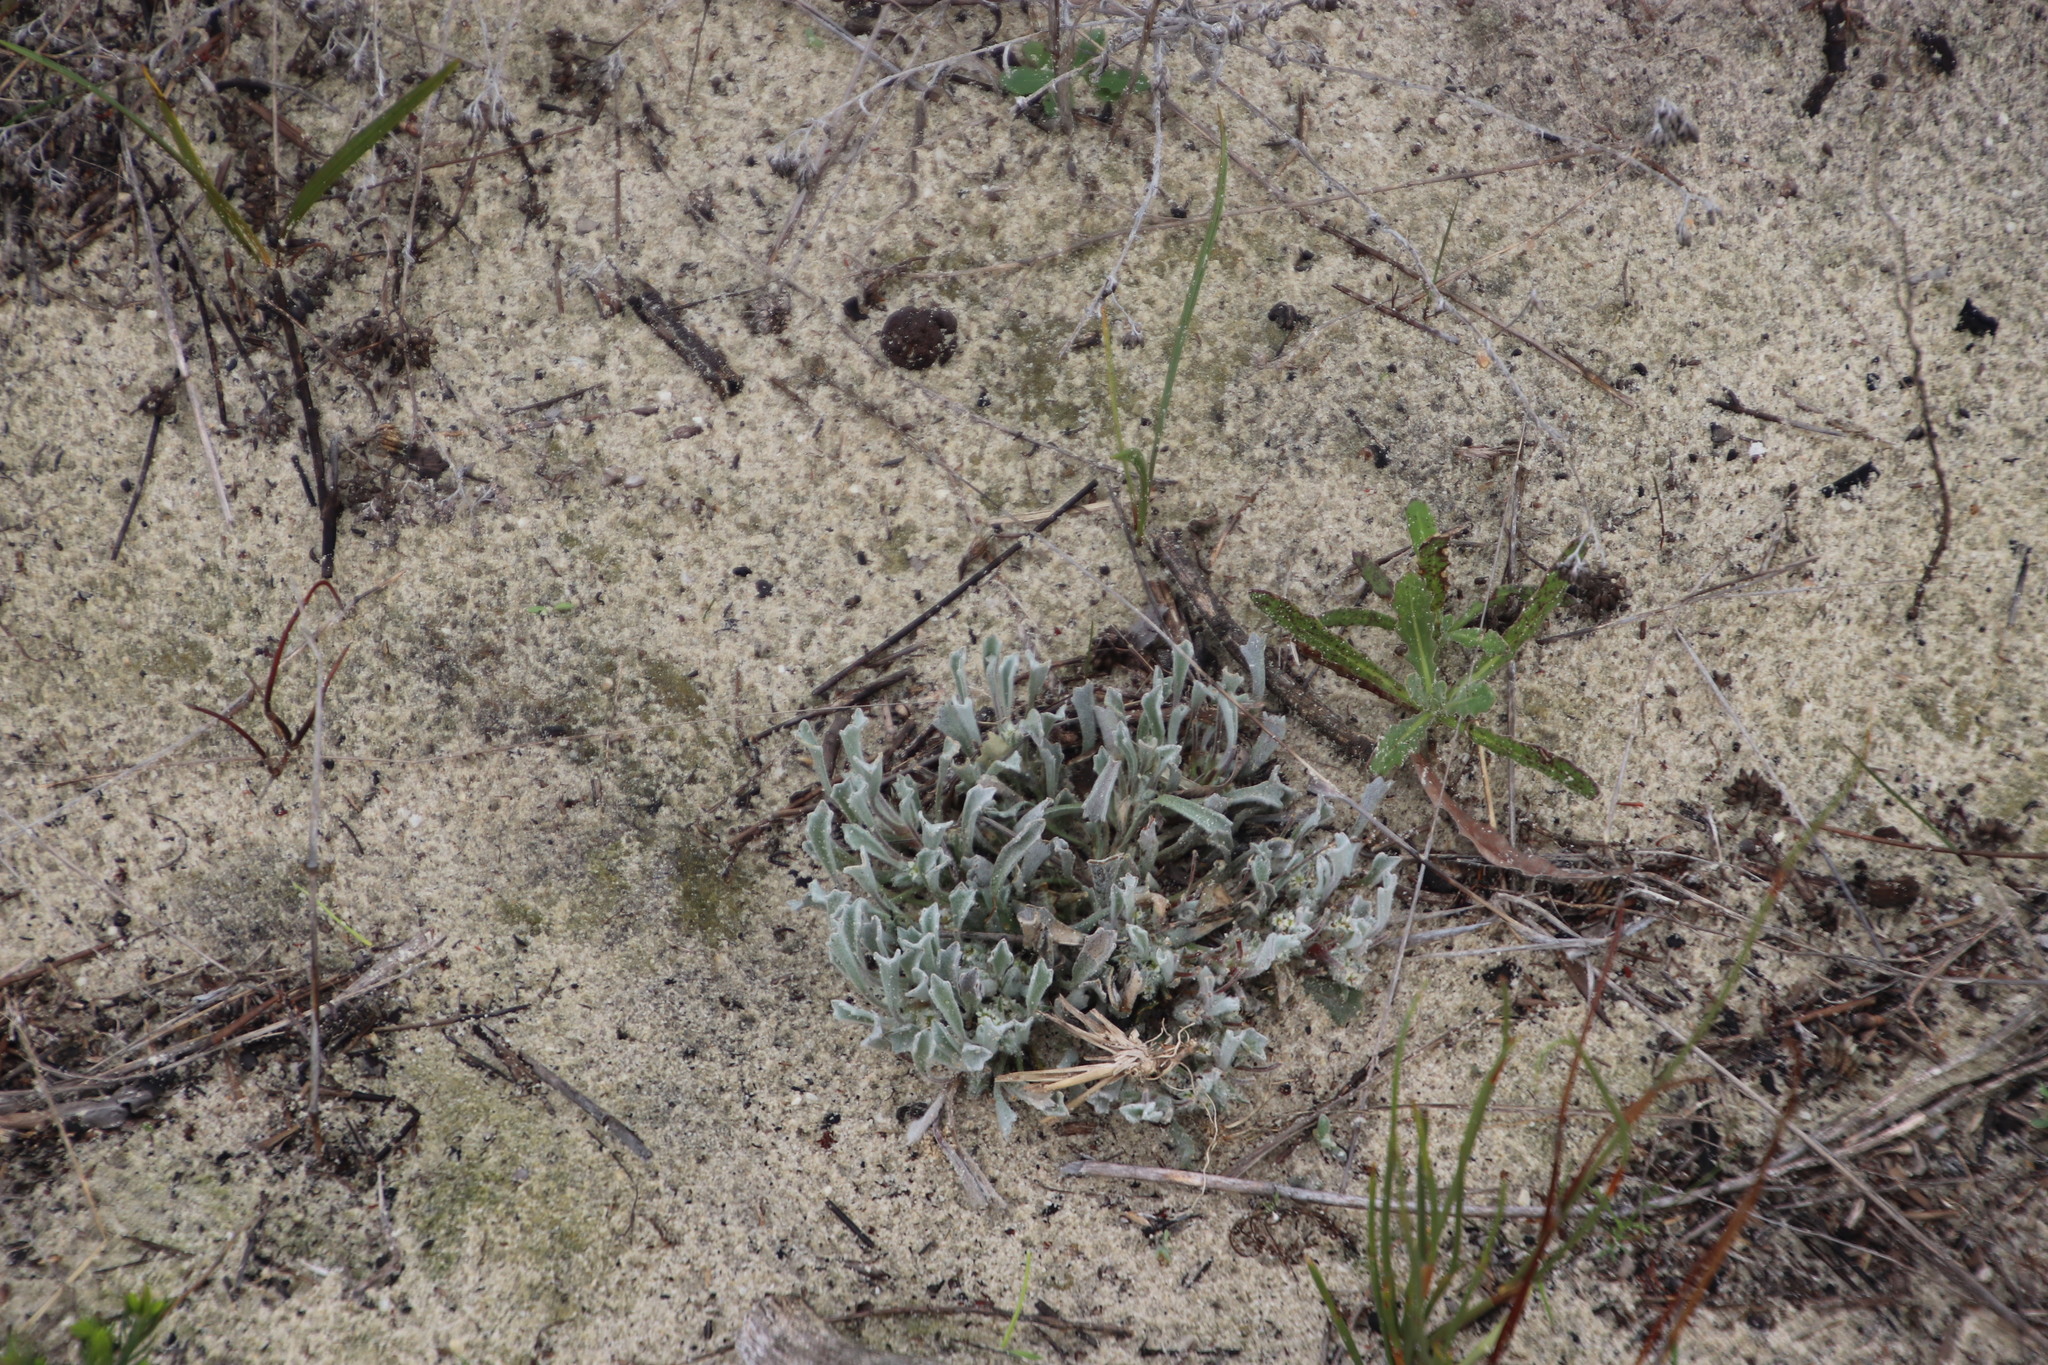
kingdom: Plantae
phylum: Tracheophyta
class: Magnoliopsida
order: Apiales
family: Apiaceae
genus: Centella
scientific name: Centella tridentata
